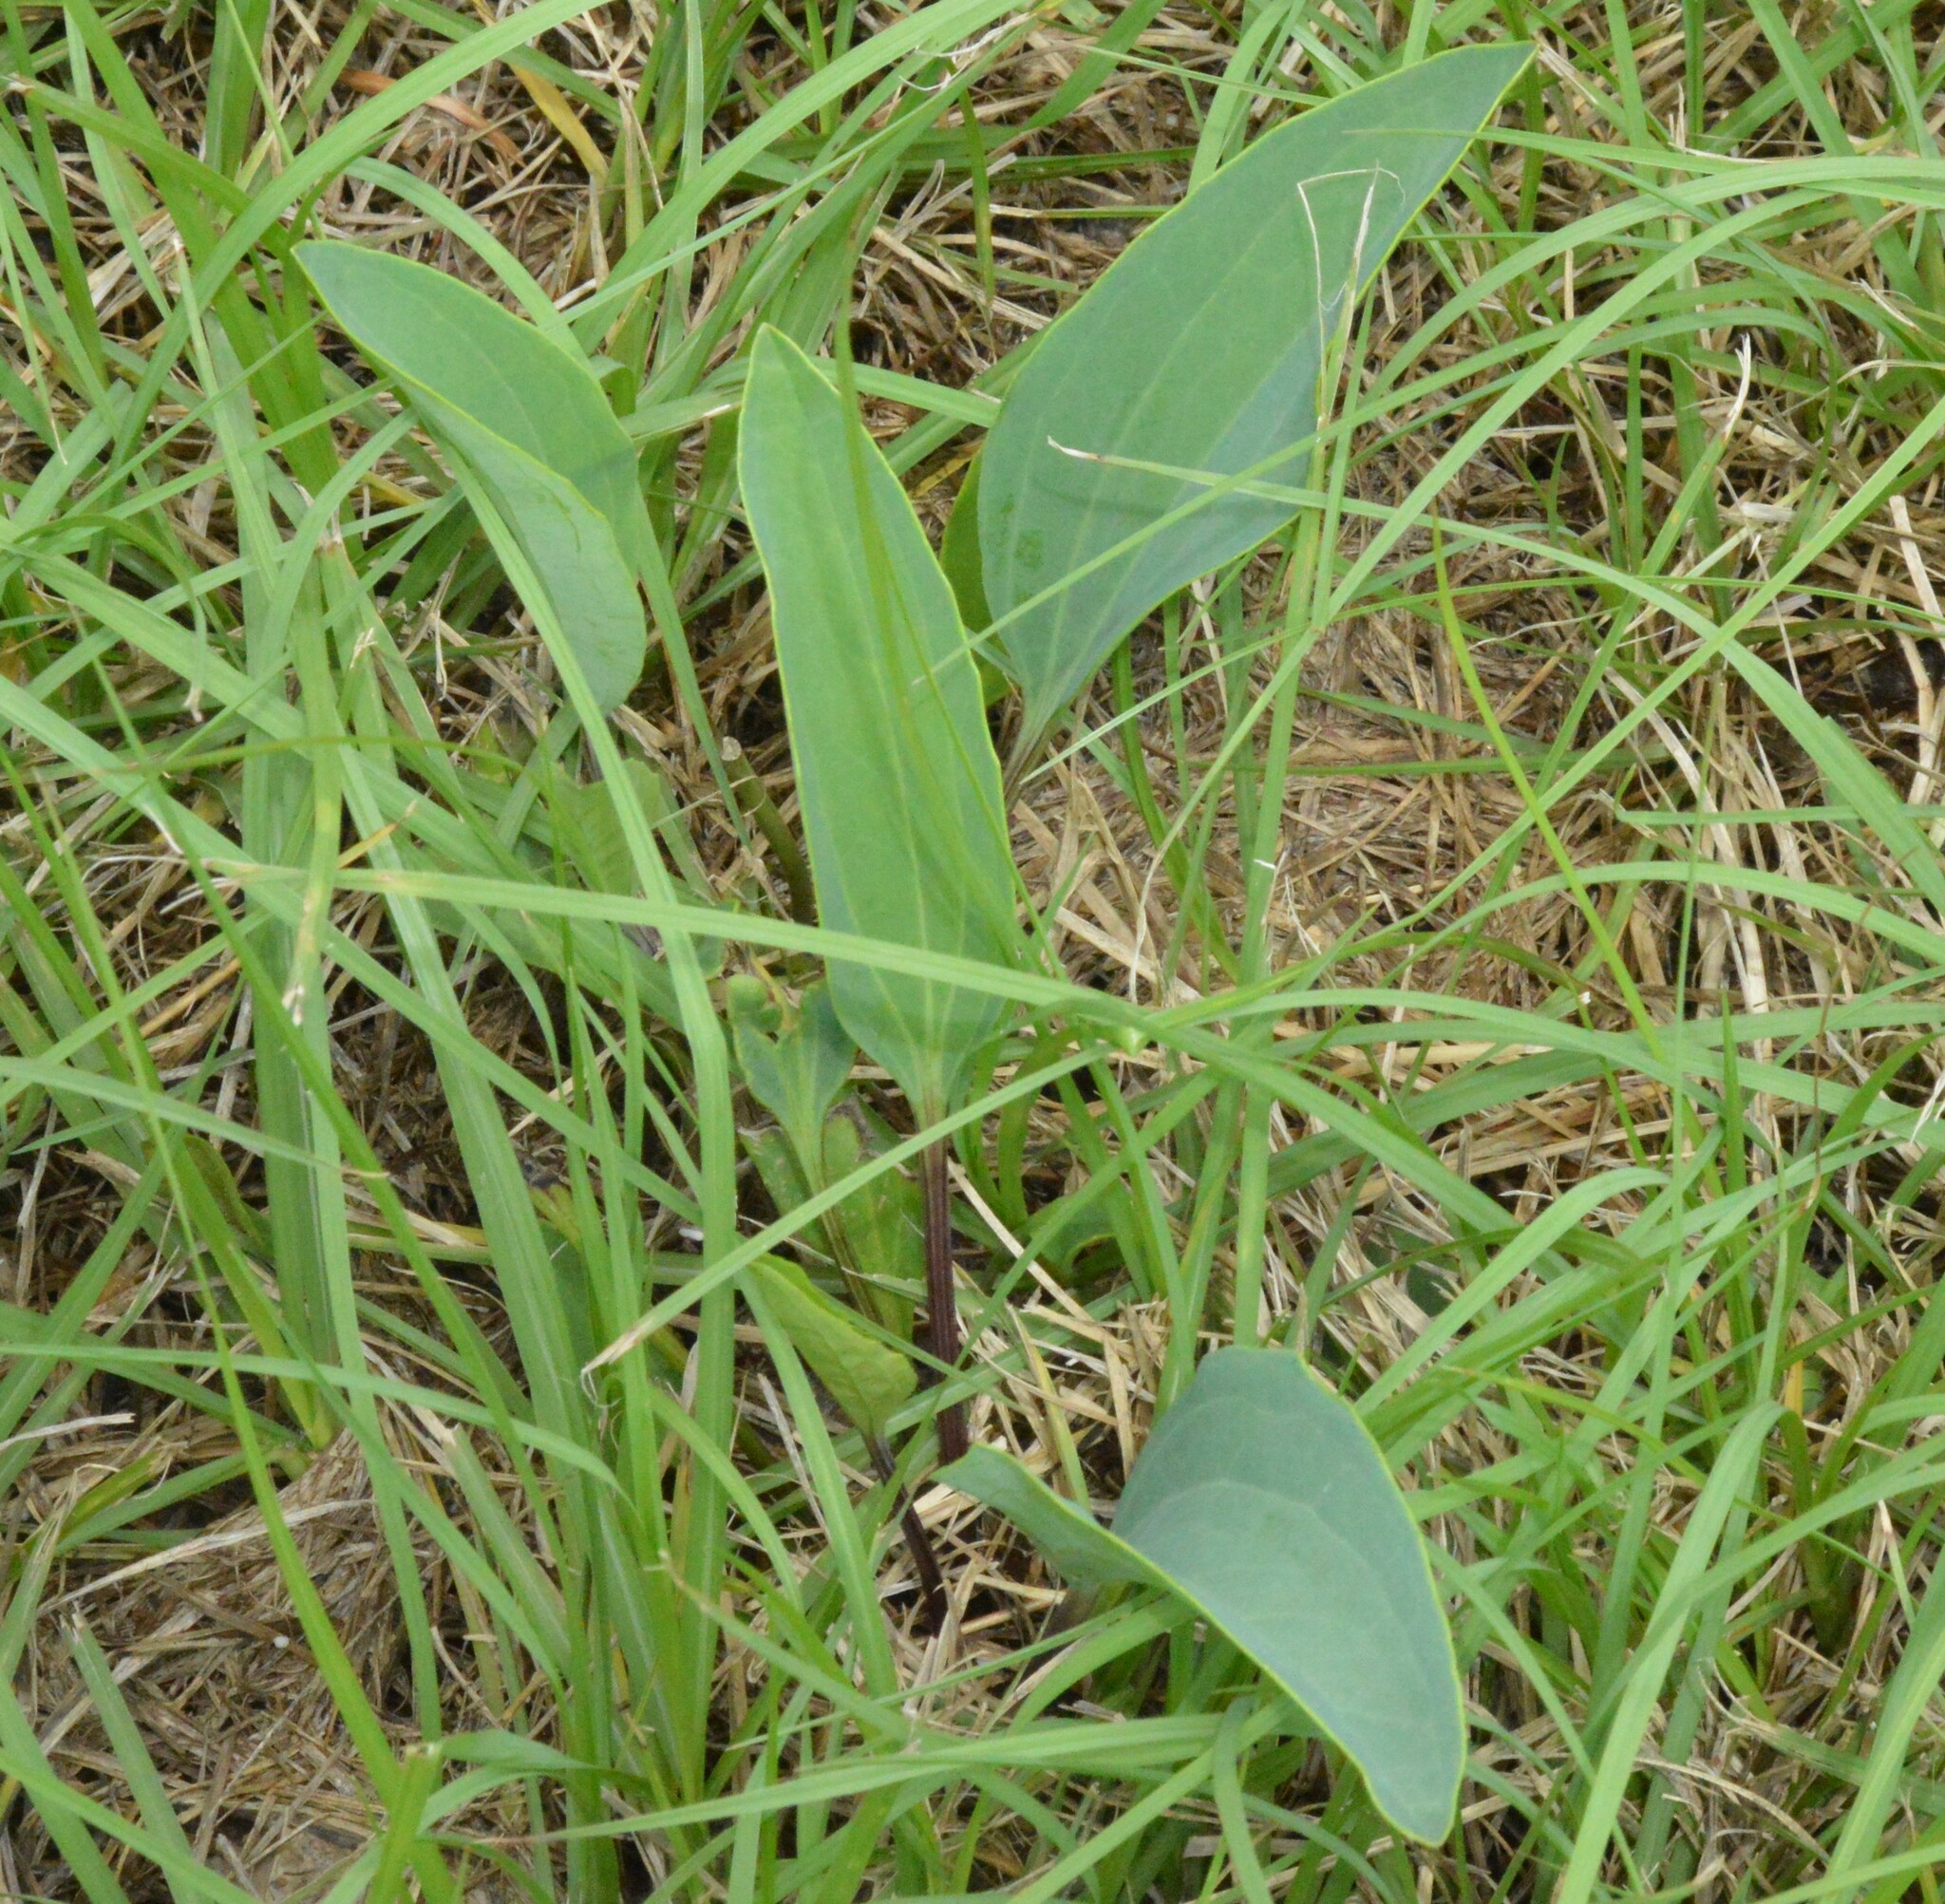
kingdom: Plantae
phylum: Tracheophyta
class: Magnoliopsida
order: Asterales
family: Asteraceae
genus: Arnoglossum
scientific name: Arnoglossum ovatum
